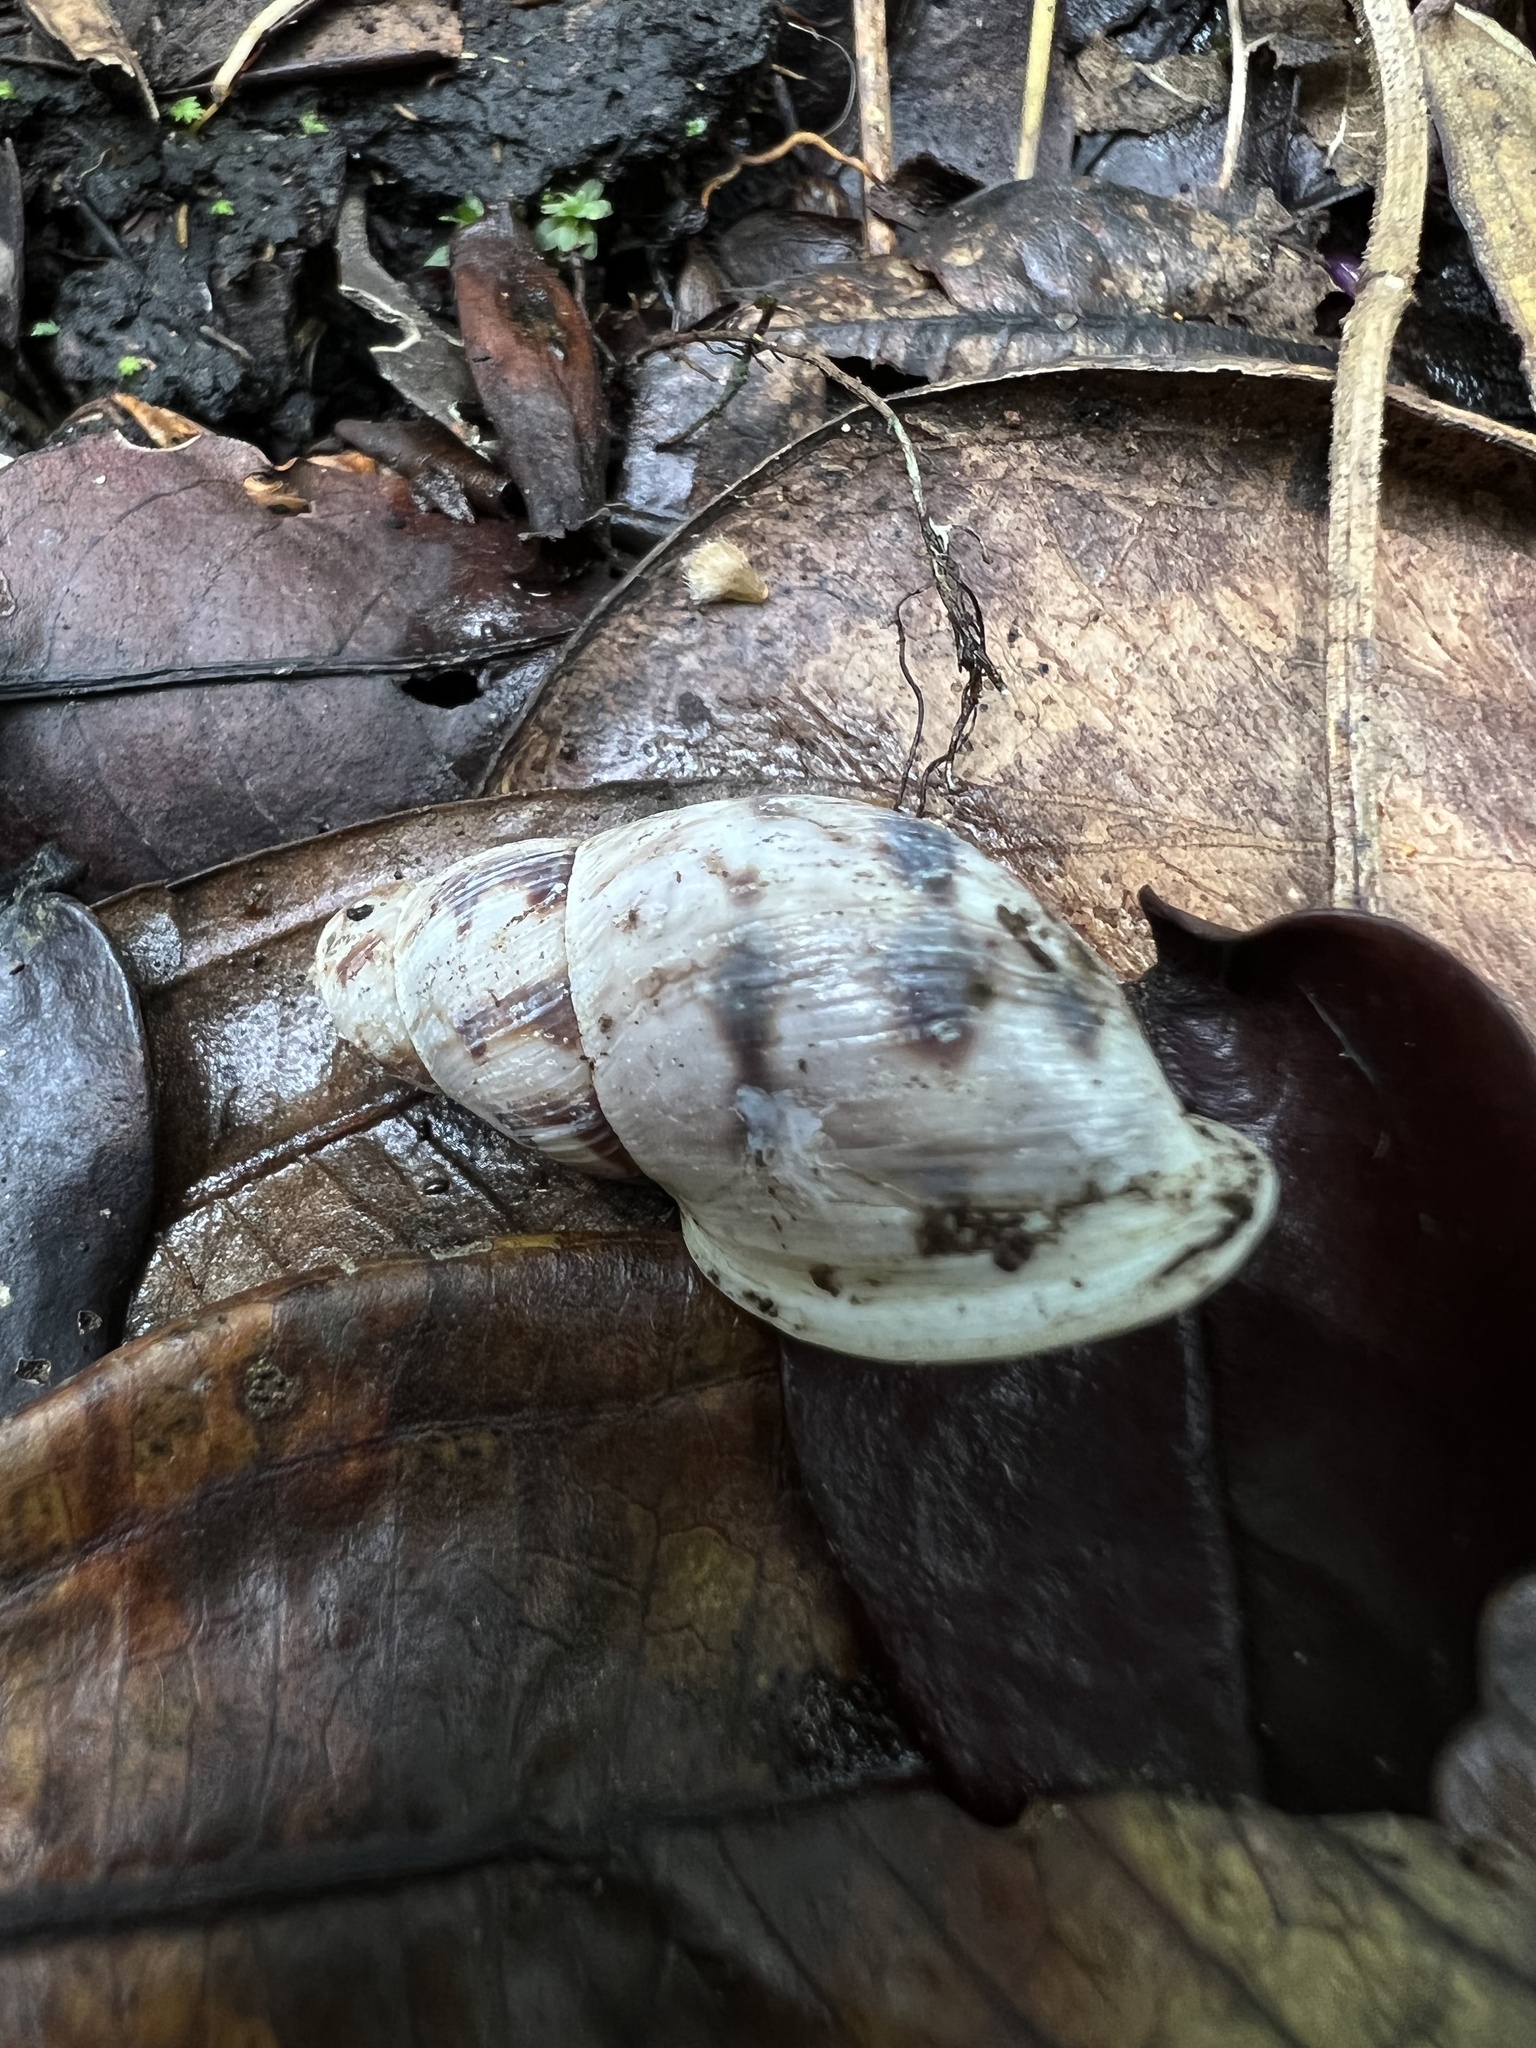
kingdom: Animalia
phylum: Mollusca
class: Gastropoda
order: Stylommatophora
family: Bulimulidae
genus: Drymaeus
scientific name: Drymaeus smithii
